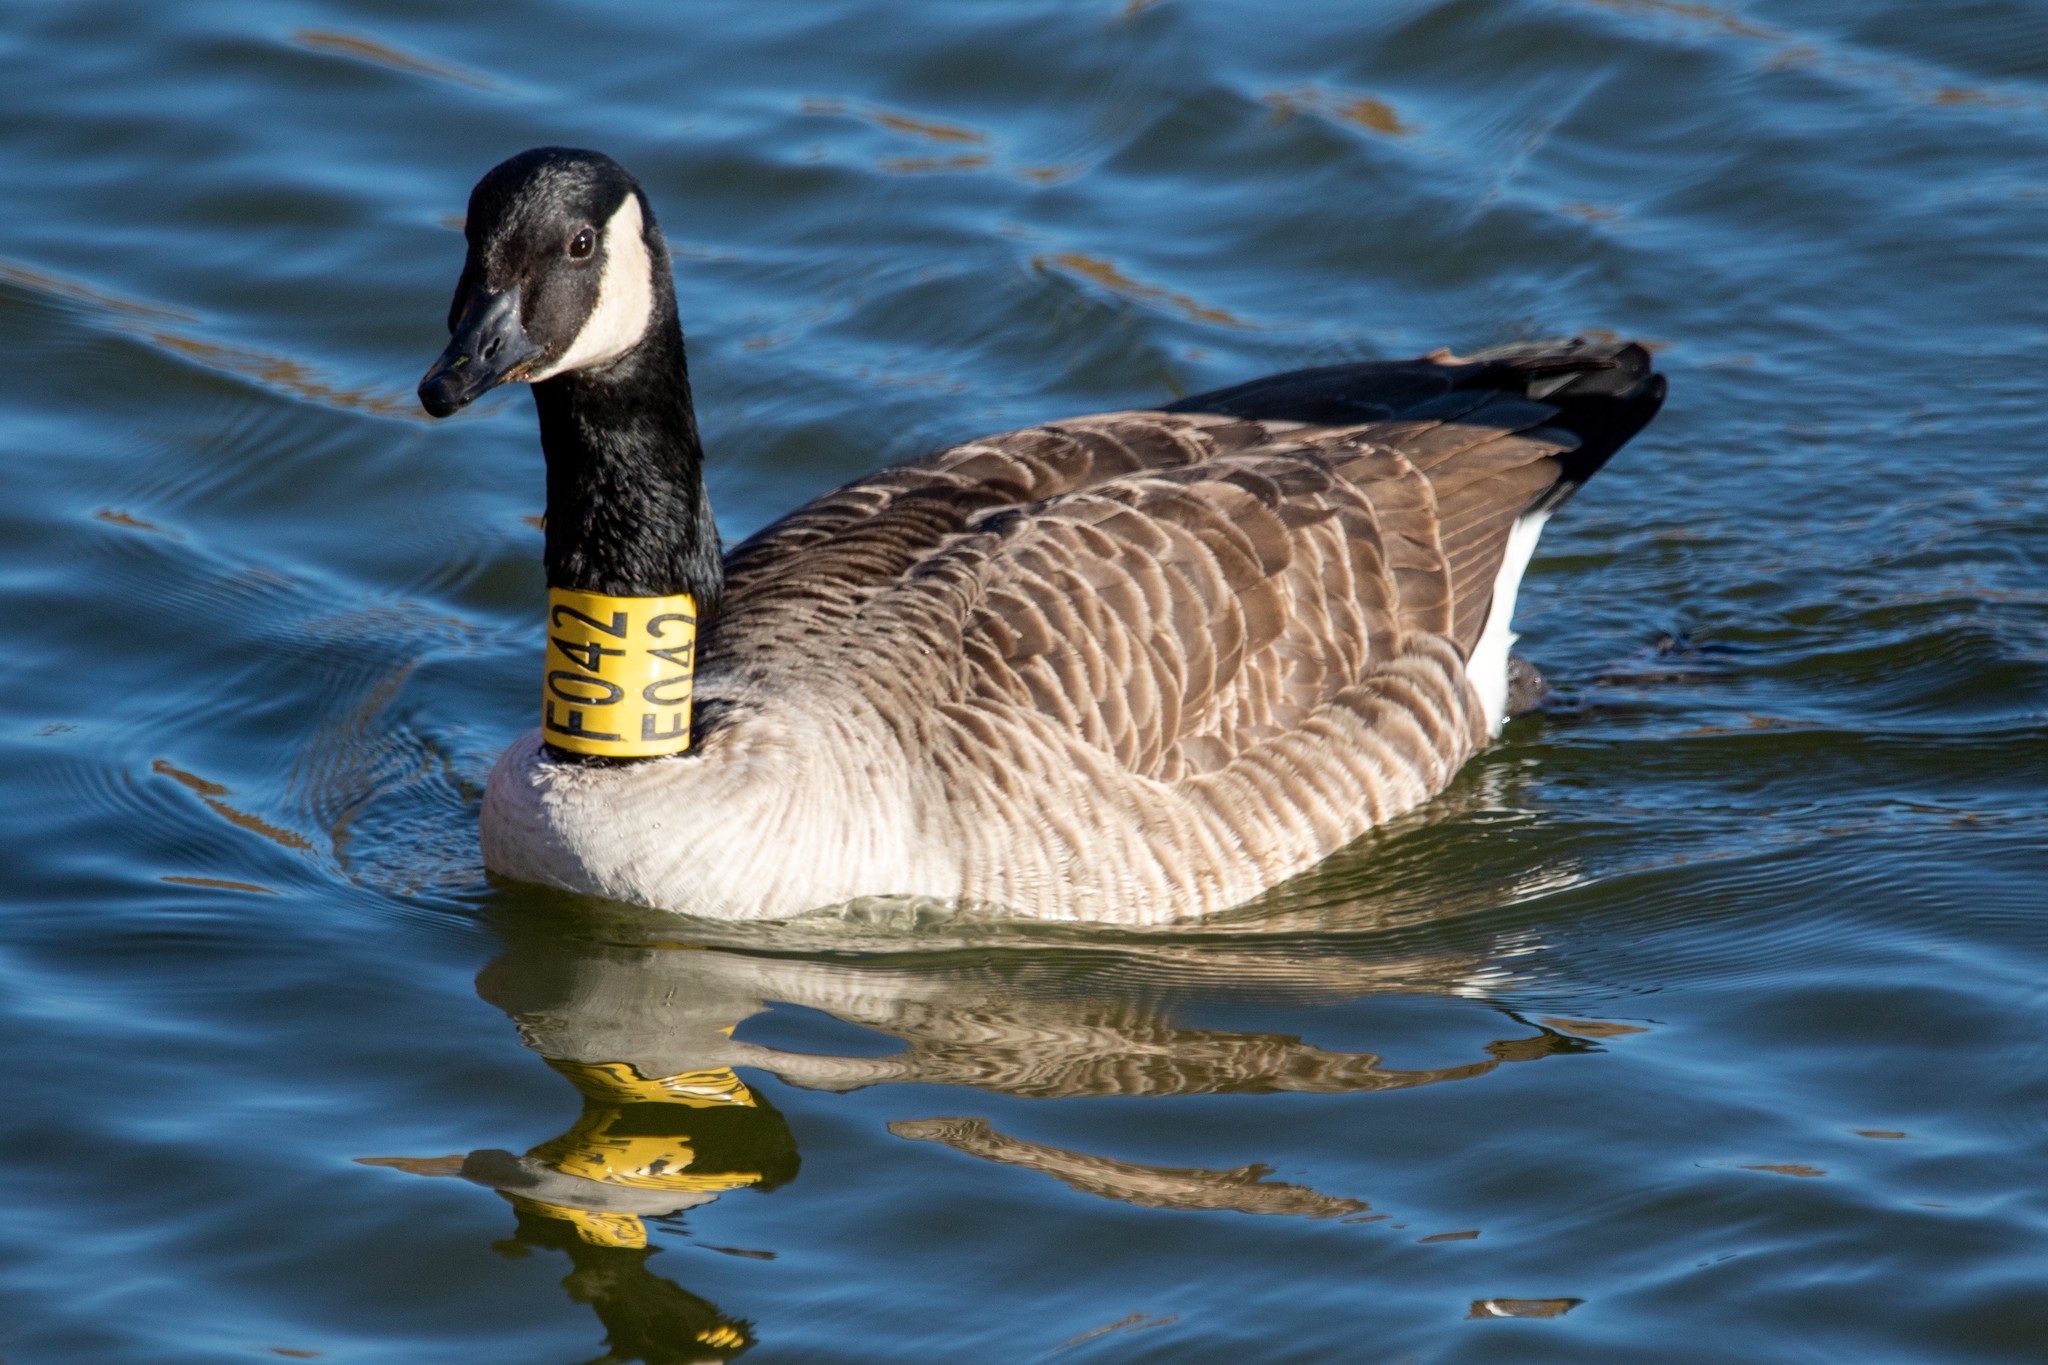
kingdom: Animalia
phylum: Chordata
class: Aves
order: Anseriformes
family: Anatidae
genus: Branta
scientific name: Branta canadensis
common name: Canada goose
